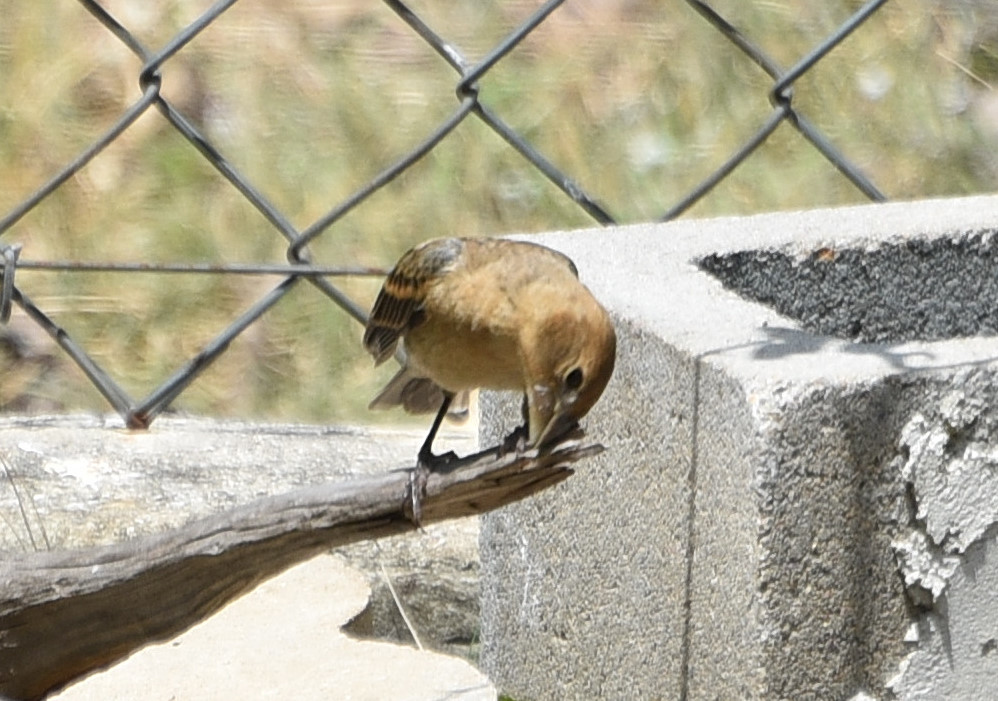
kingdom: Animalia
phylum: Chordata
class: Aves
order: Passeriformes
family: Cardinalidae
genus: Passerina
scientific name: Passerina caerulea
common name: Blue grosbeak
